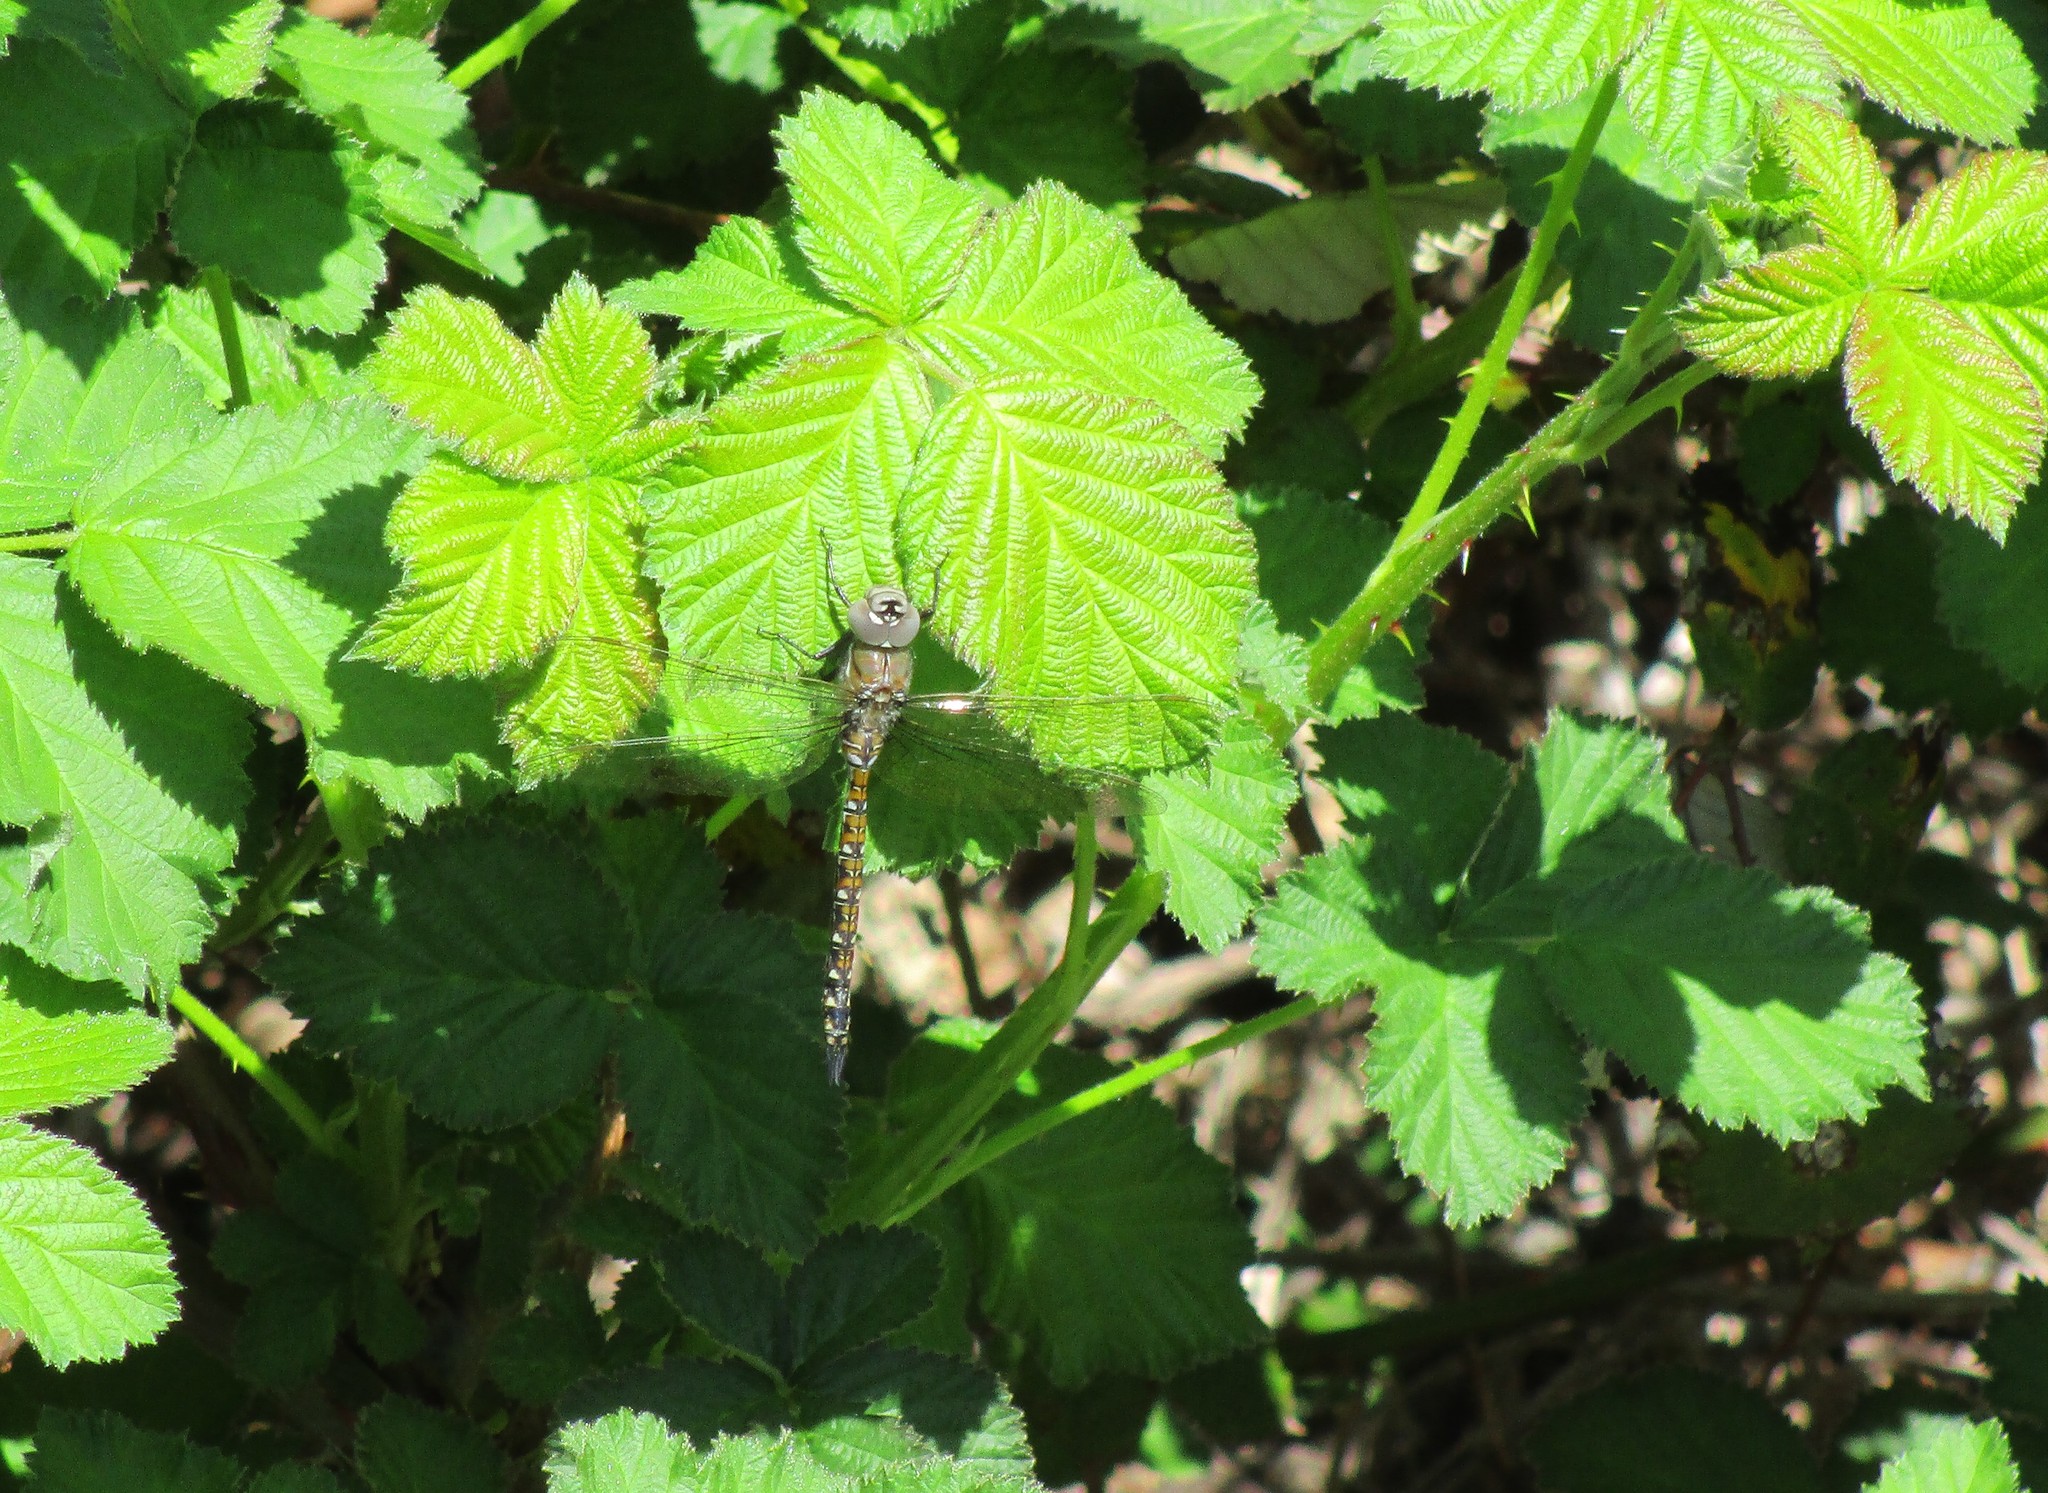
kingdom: Animalia
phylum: Arthropoda
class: Insecta
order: Odonata
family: Aeshnidae
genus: Rhionaeschna
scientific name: Rhionaeschna californica
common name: California darner
